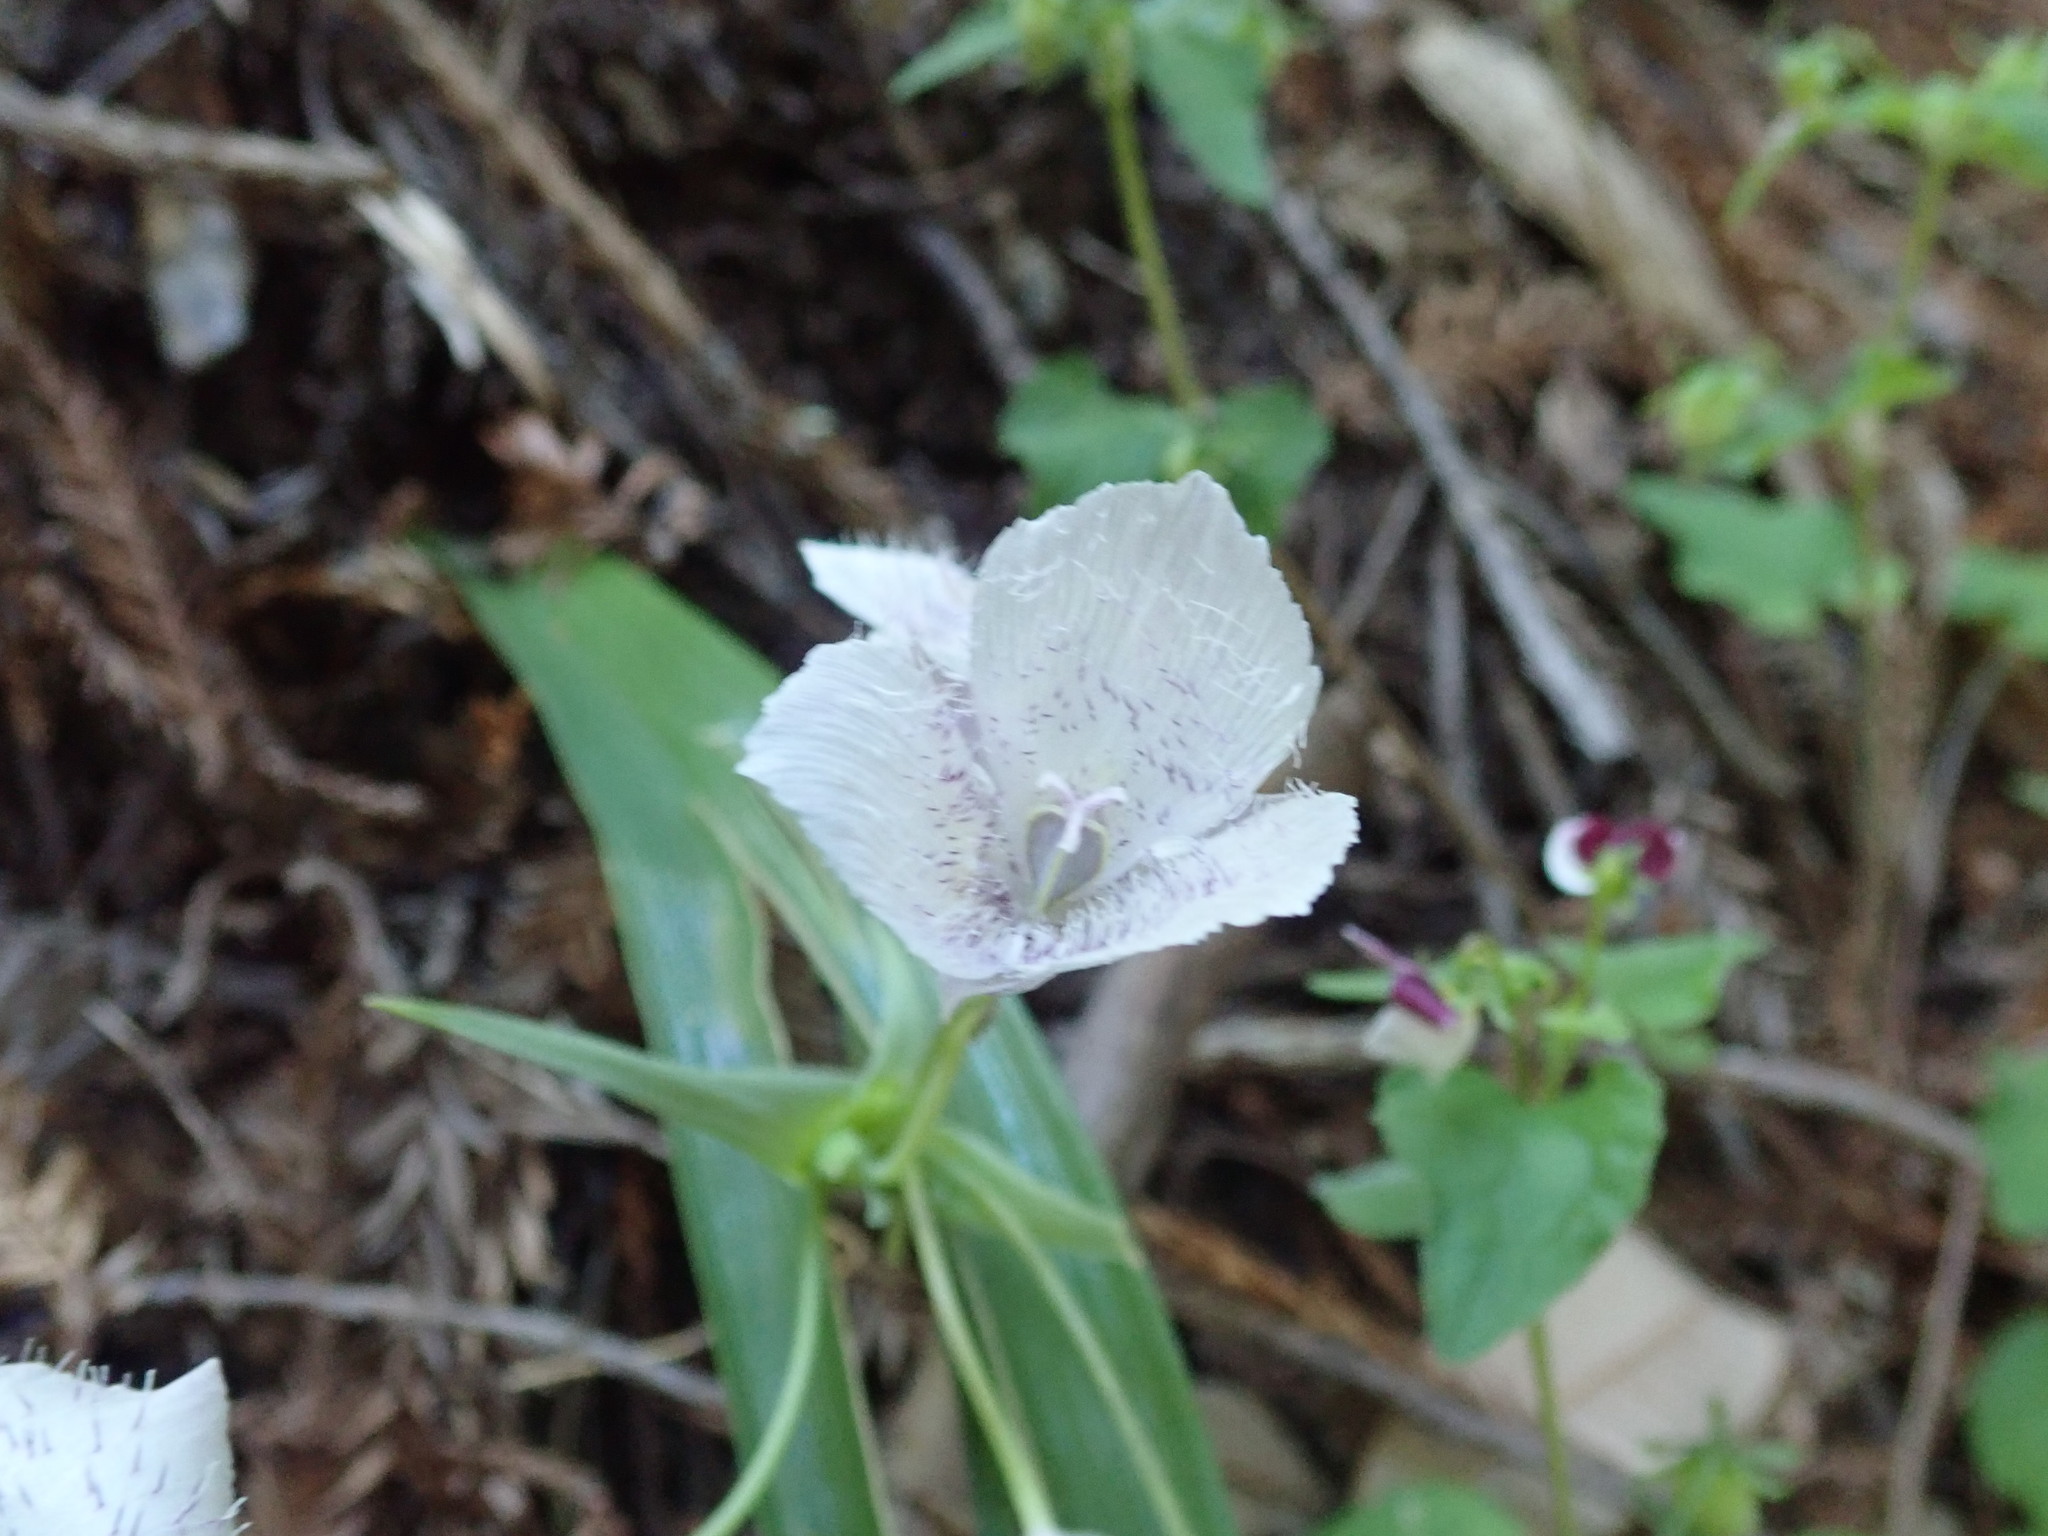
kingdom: Plantae
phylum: Tracheophyta
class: Liliopsida
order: Liliales
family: Liliaceae
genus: Calochortus
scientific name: Calochortus tolmiei
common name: Pussy-ears
